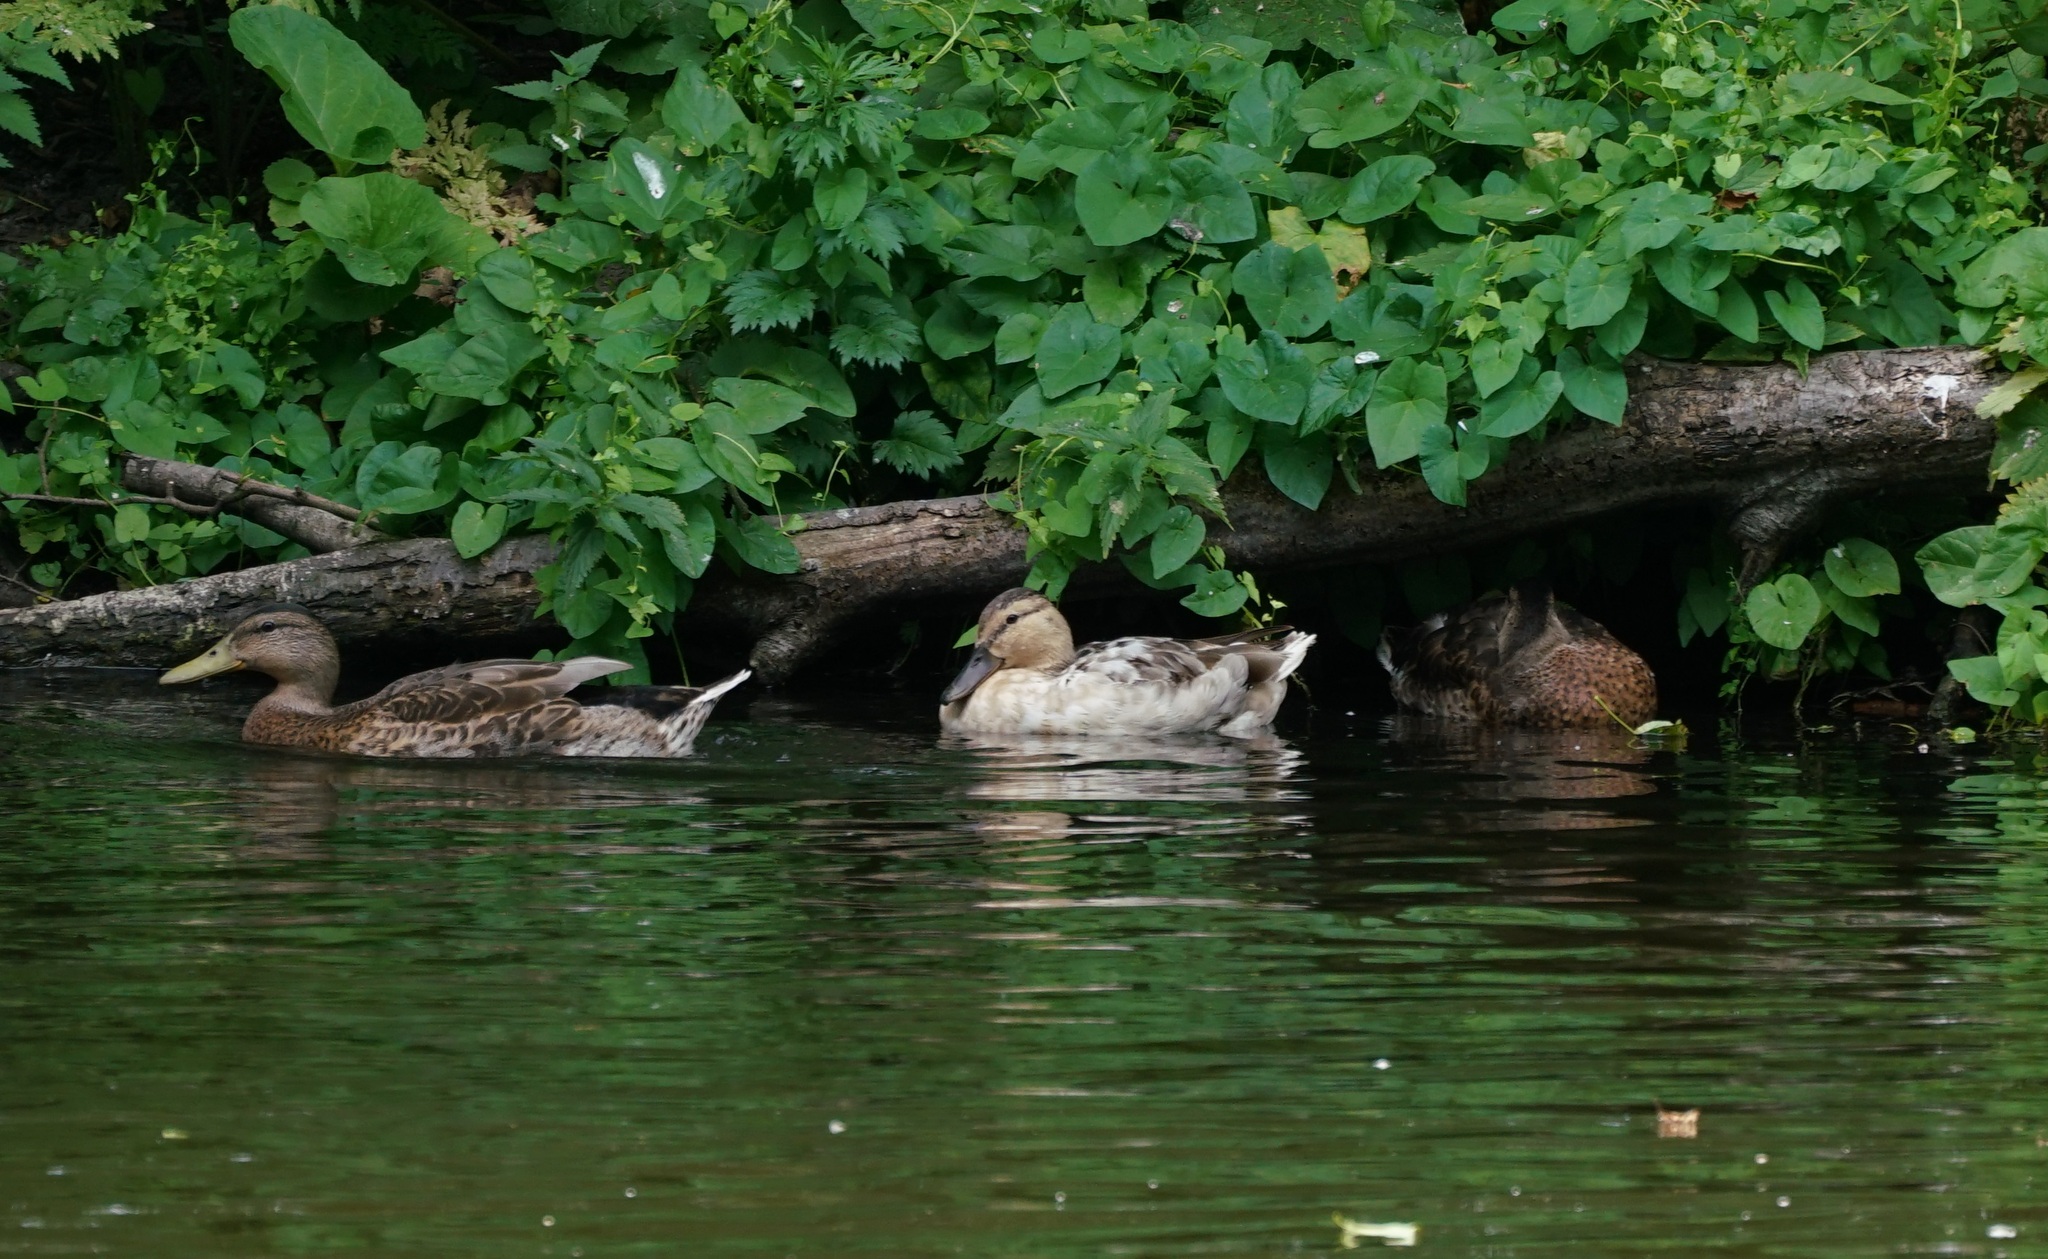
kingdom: Animalia
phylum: Chordata
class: Aves
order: Anseriformes
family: Anatidae
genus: Anas
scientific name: Anas platyrhynchos
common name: Mallard
